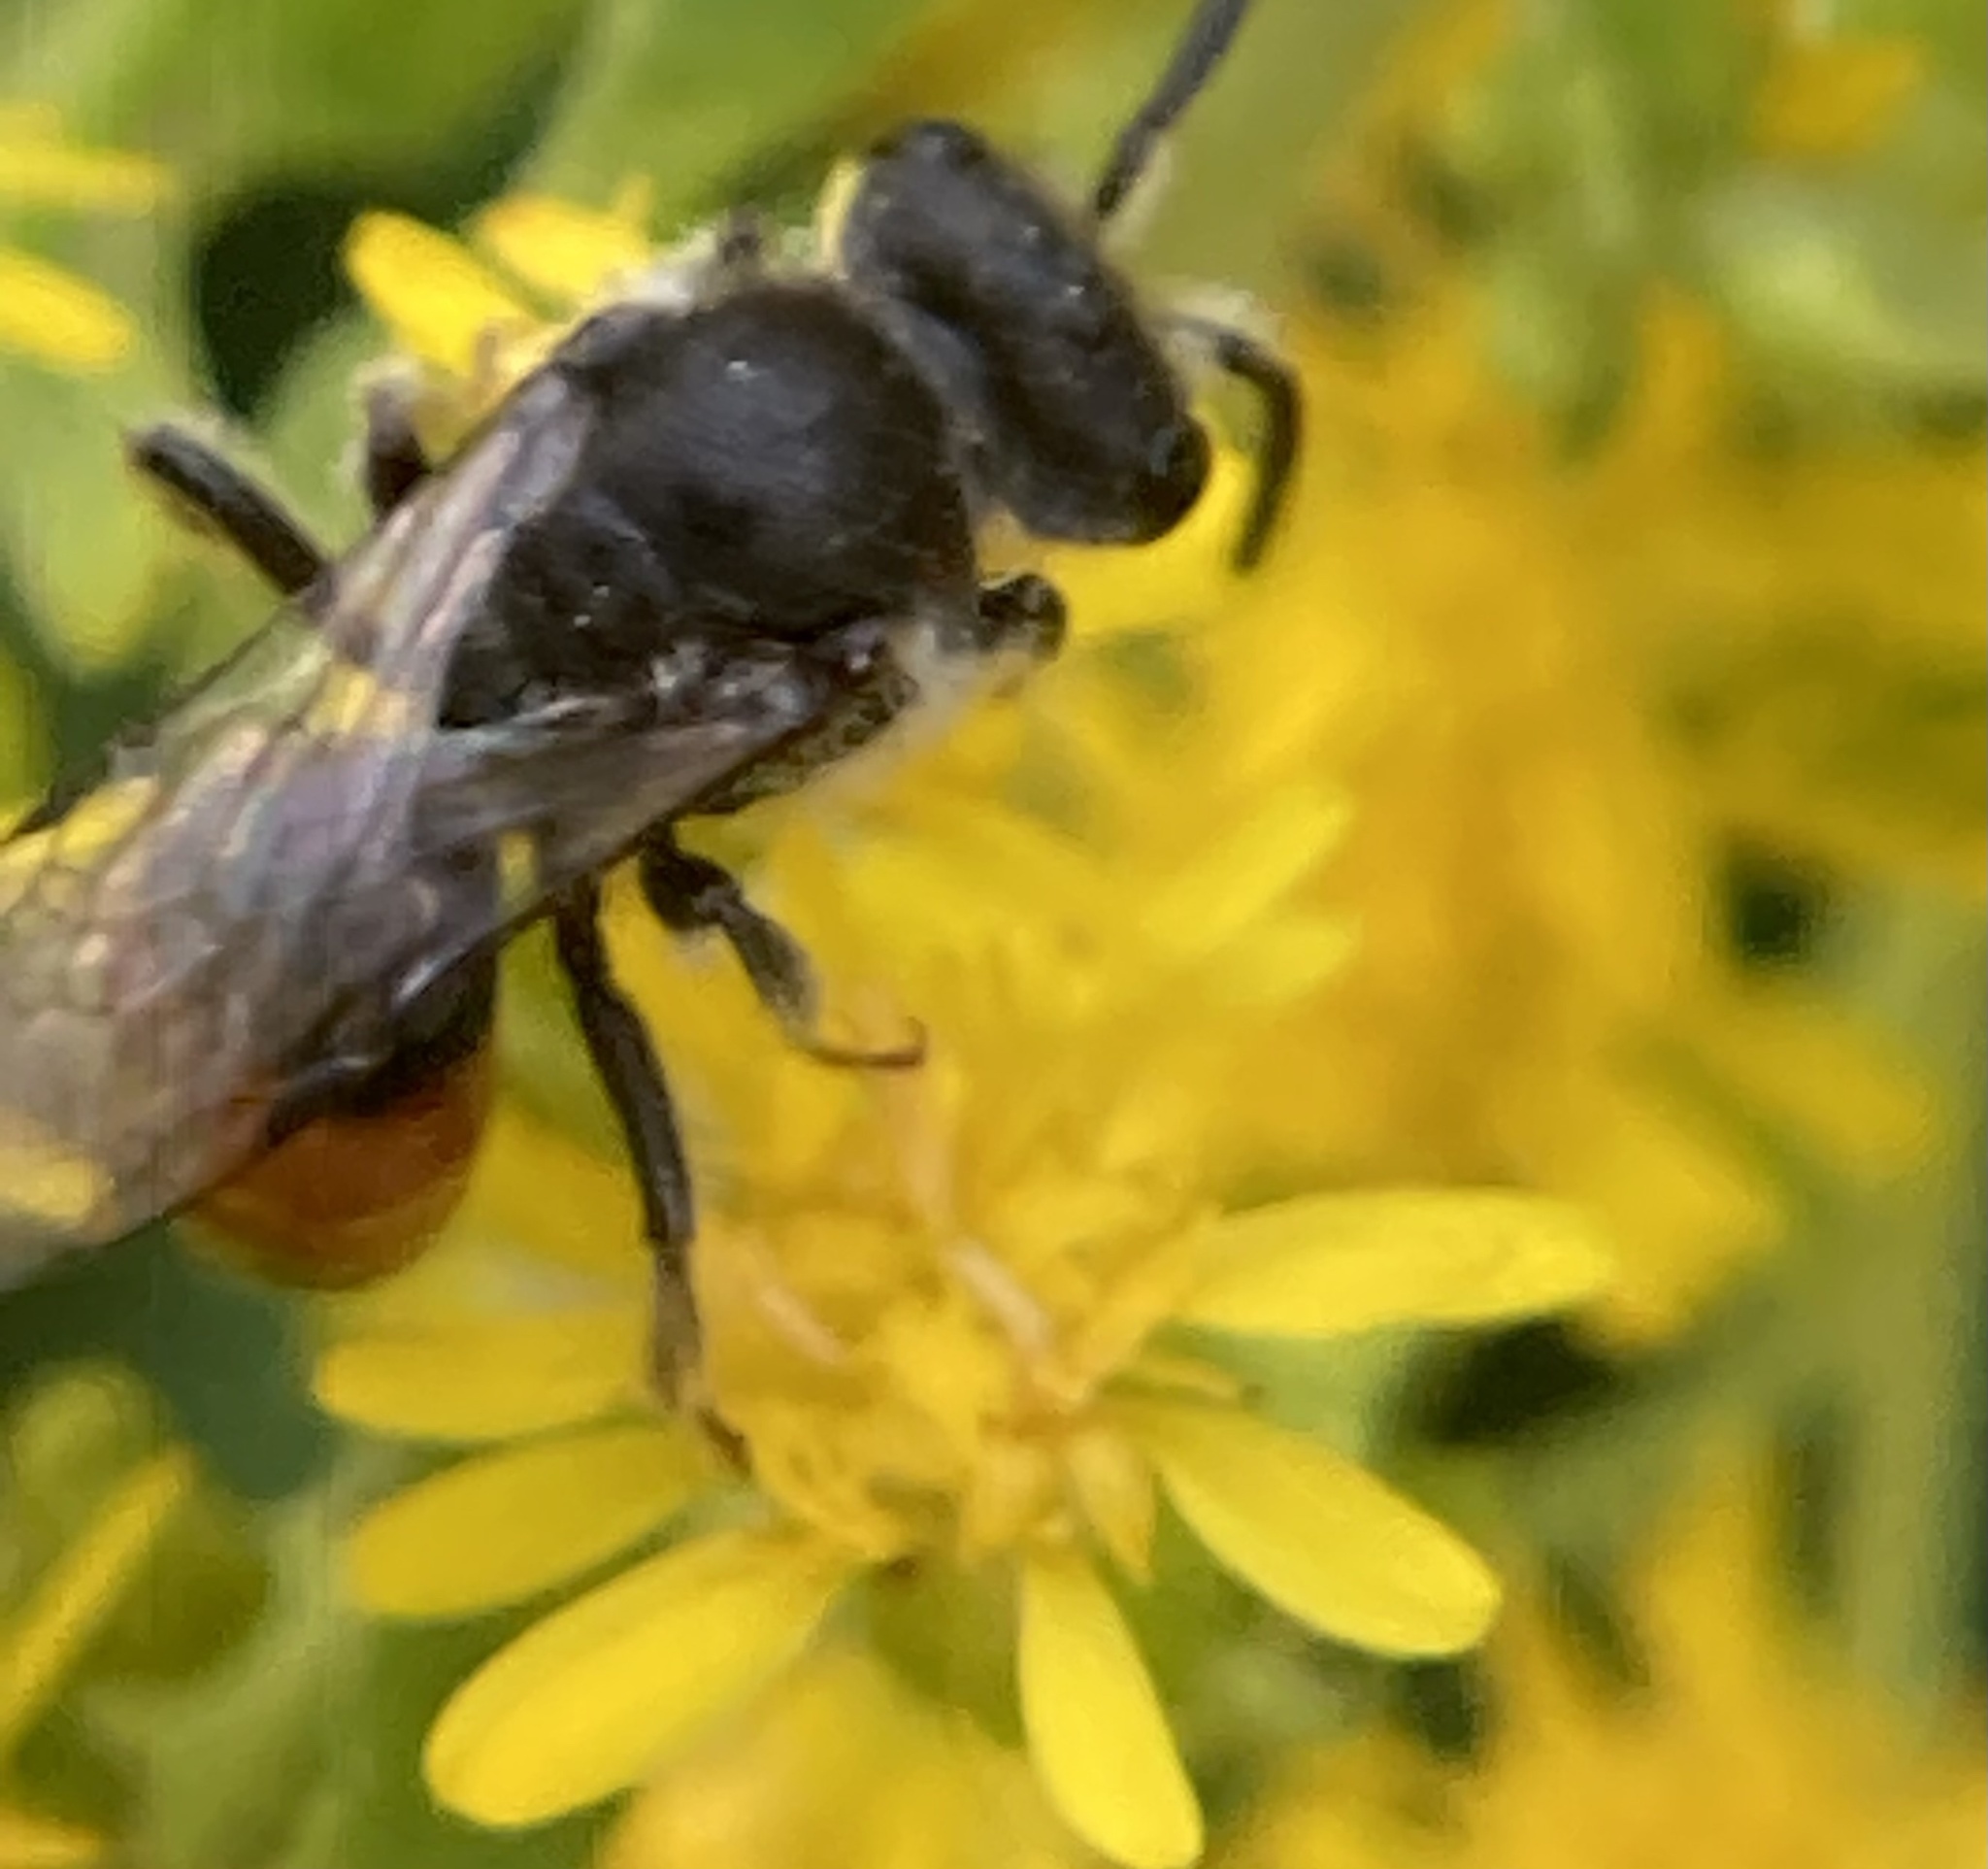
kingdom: Animalia
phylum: Arthropoda
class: Insecta
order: Hymenoptera
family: Halictidae
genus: Sphecodes
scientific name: Sphecodes
